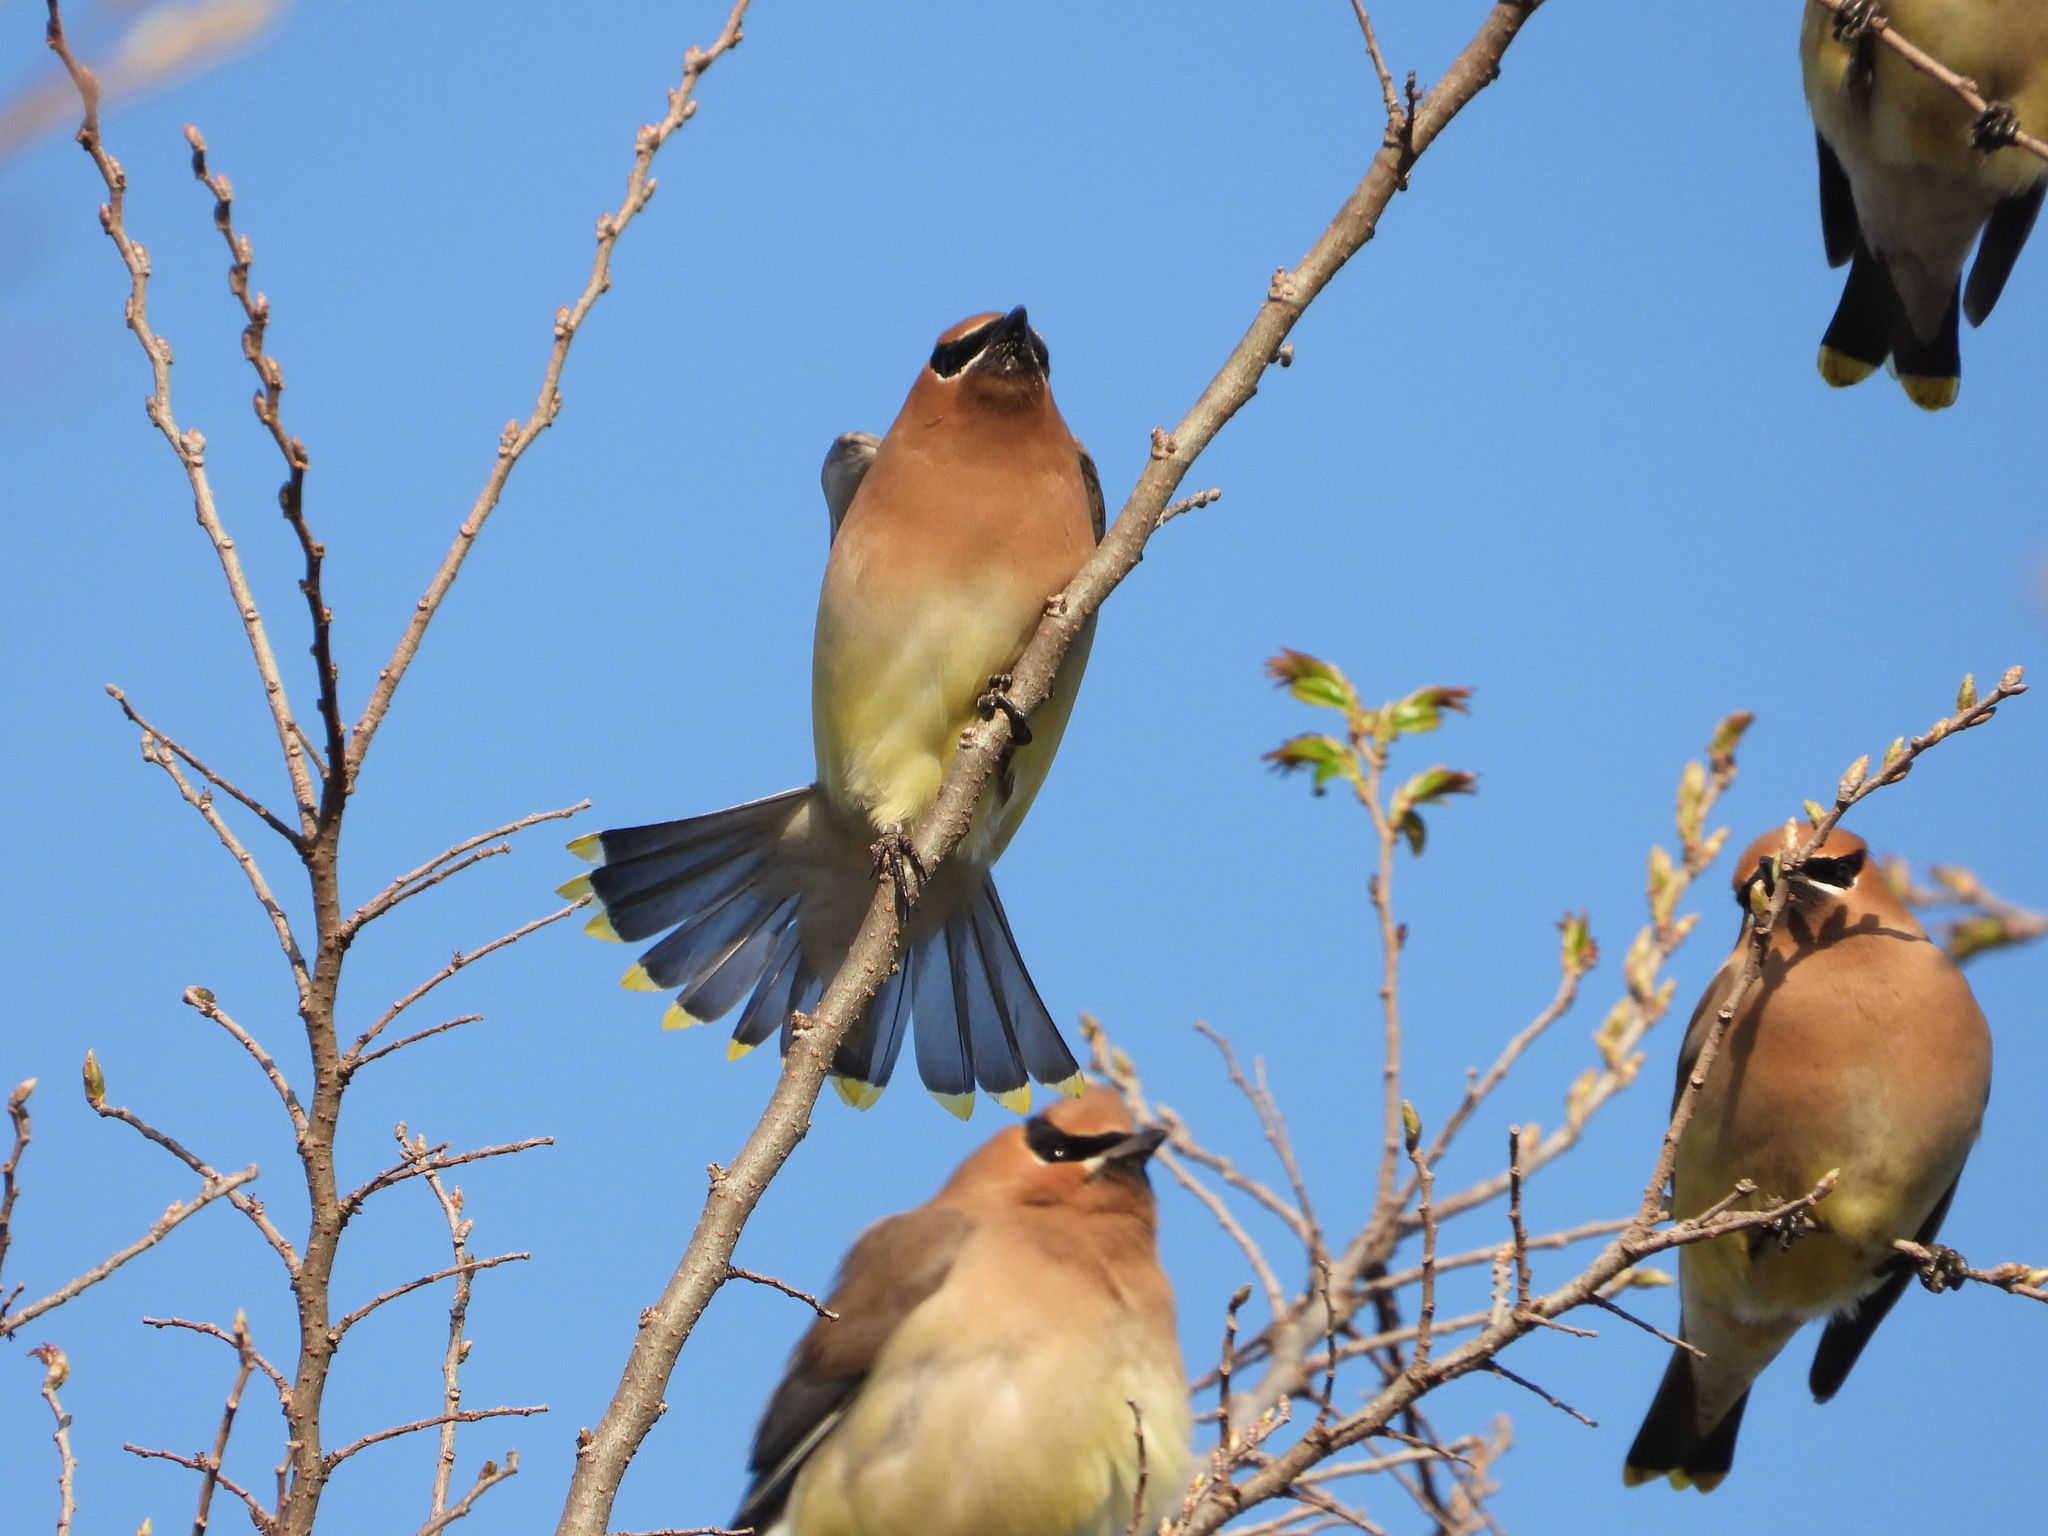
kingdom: Animalia
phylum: Chordata
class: Aves
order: Passeriformes
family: Bombycillidae
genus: Bombycilla
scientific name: Bombycilla cedrorum
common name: Cedar waxwing
